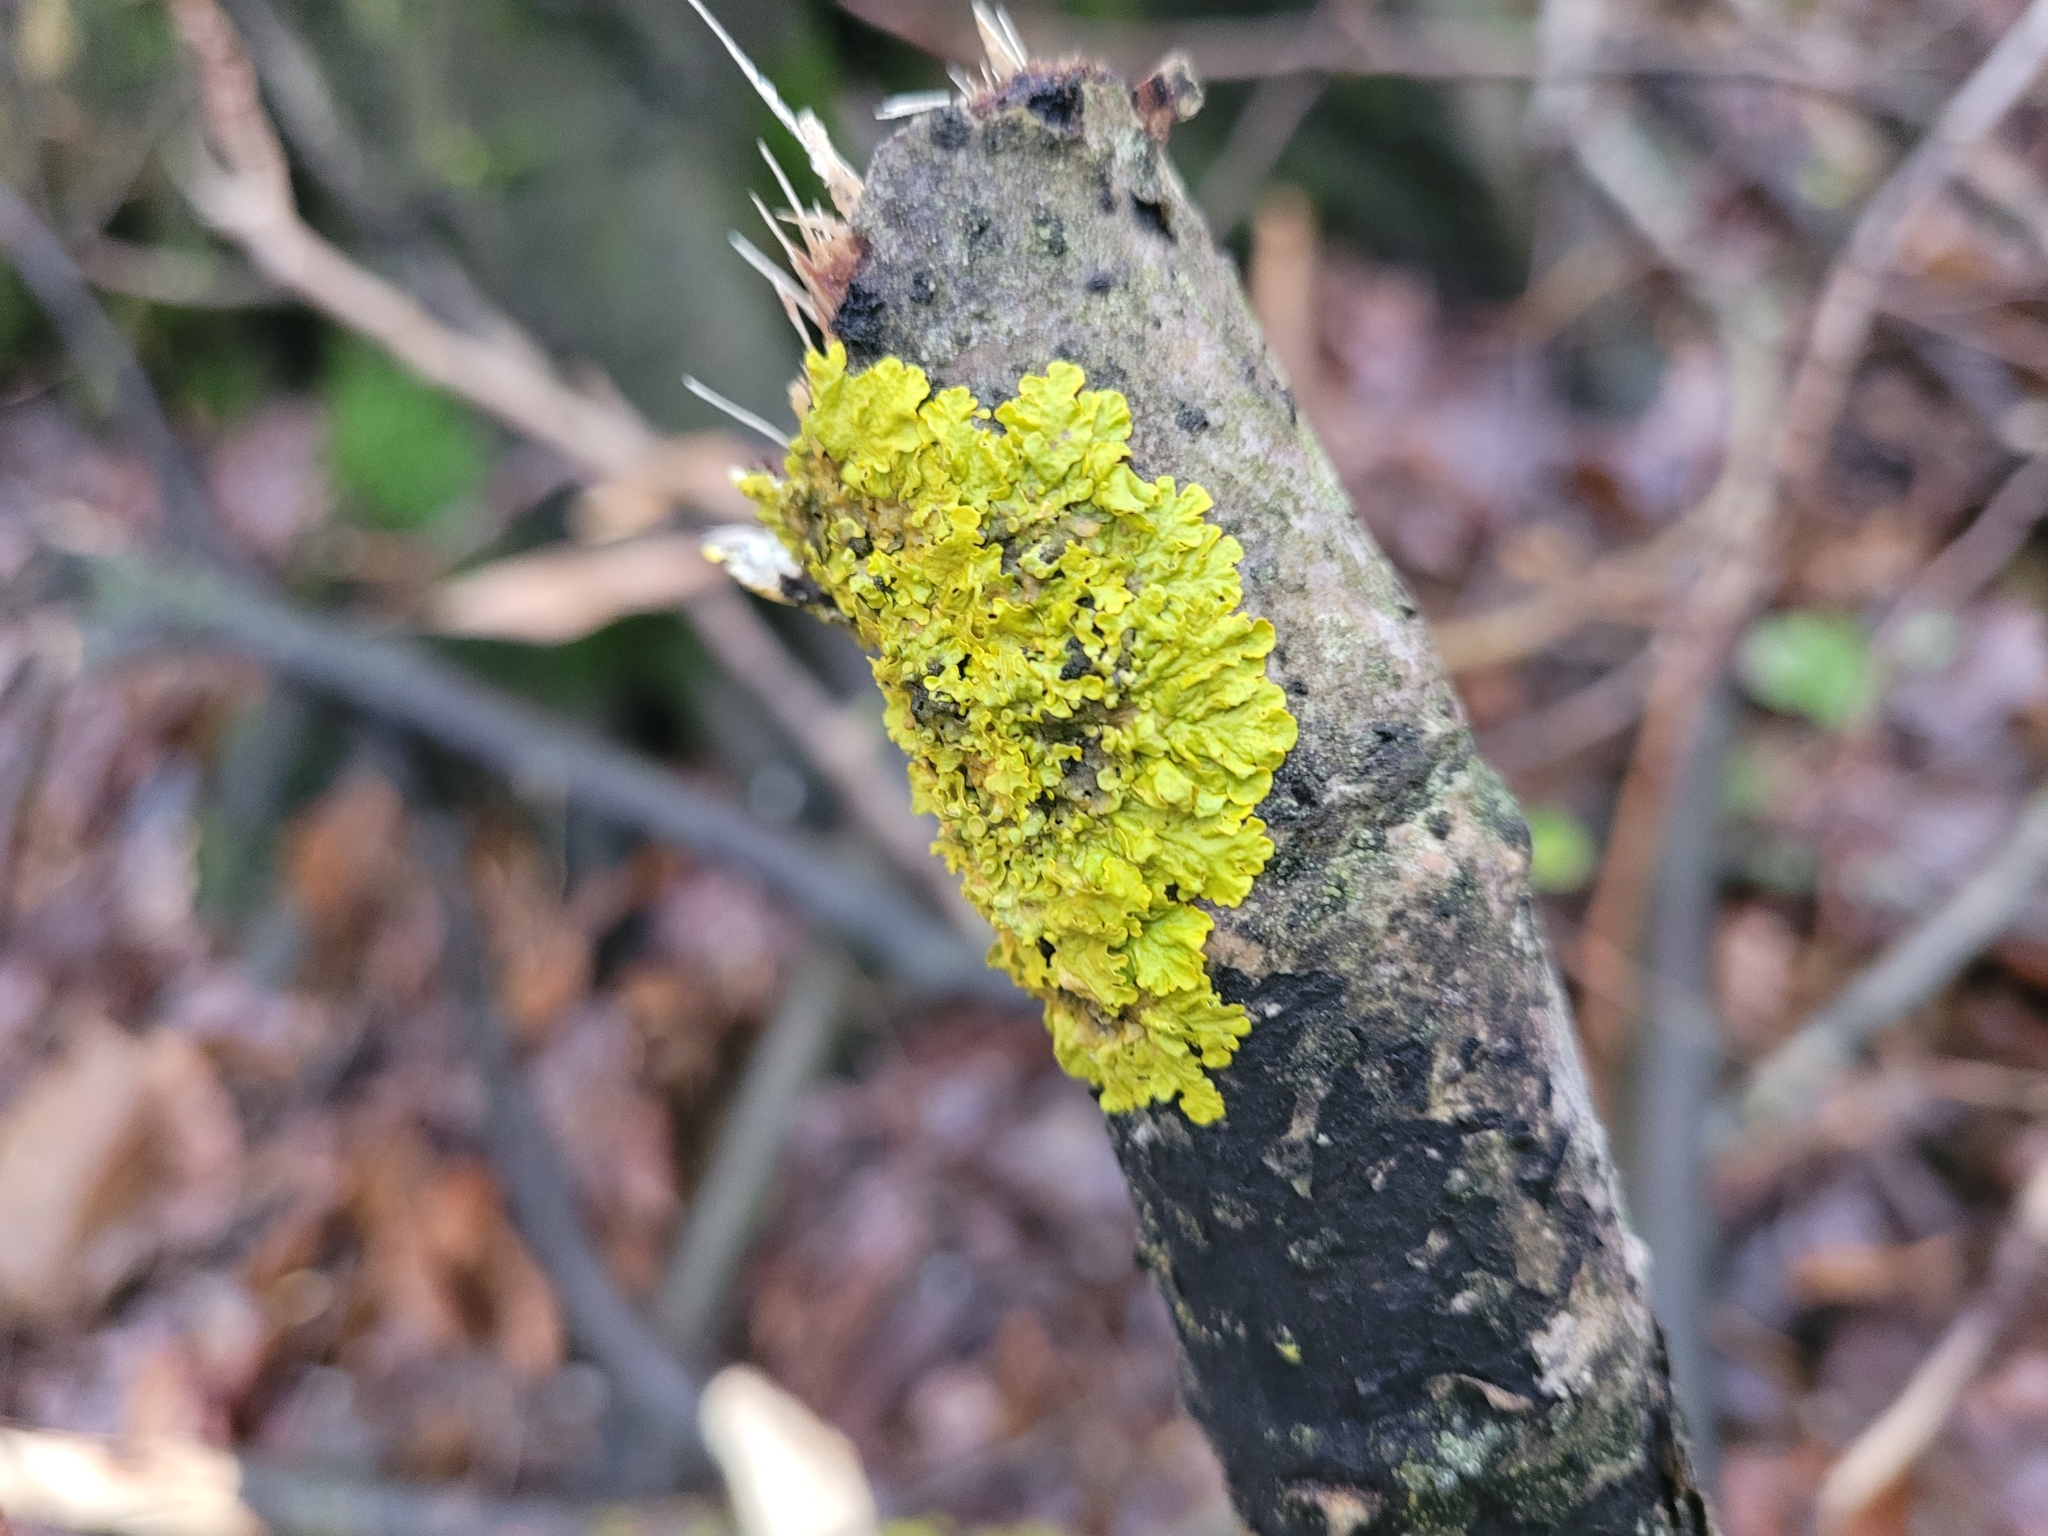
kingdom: Fungi
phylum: Ascomycota
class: Lecanoromycetes
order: Teloschistales
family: Teloschistaceae
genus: Xanthoria
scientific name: Xanthoria parietina
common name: Common orange lichen
